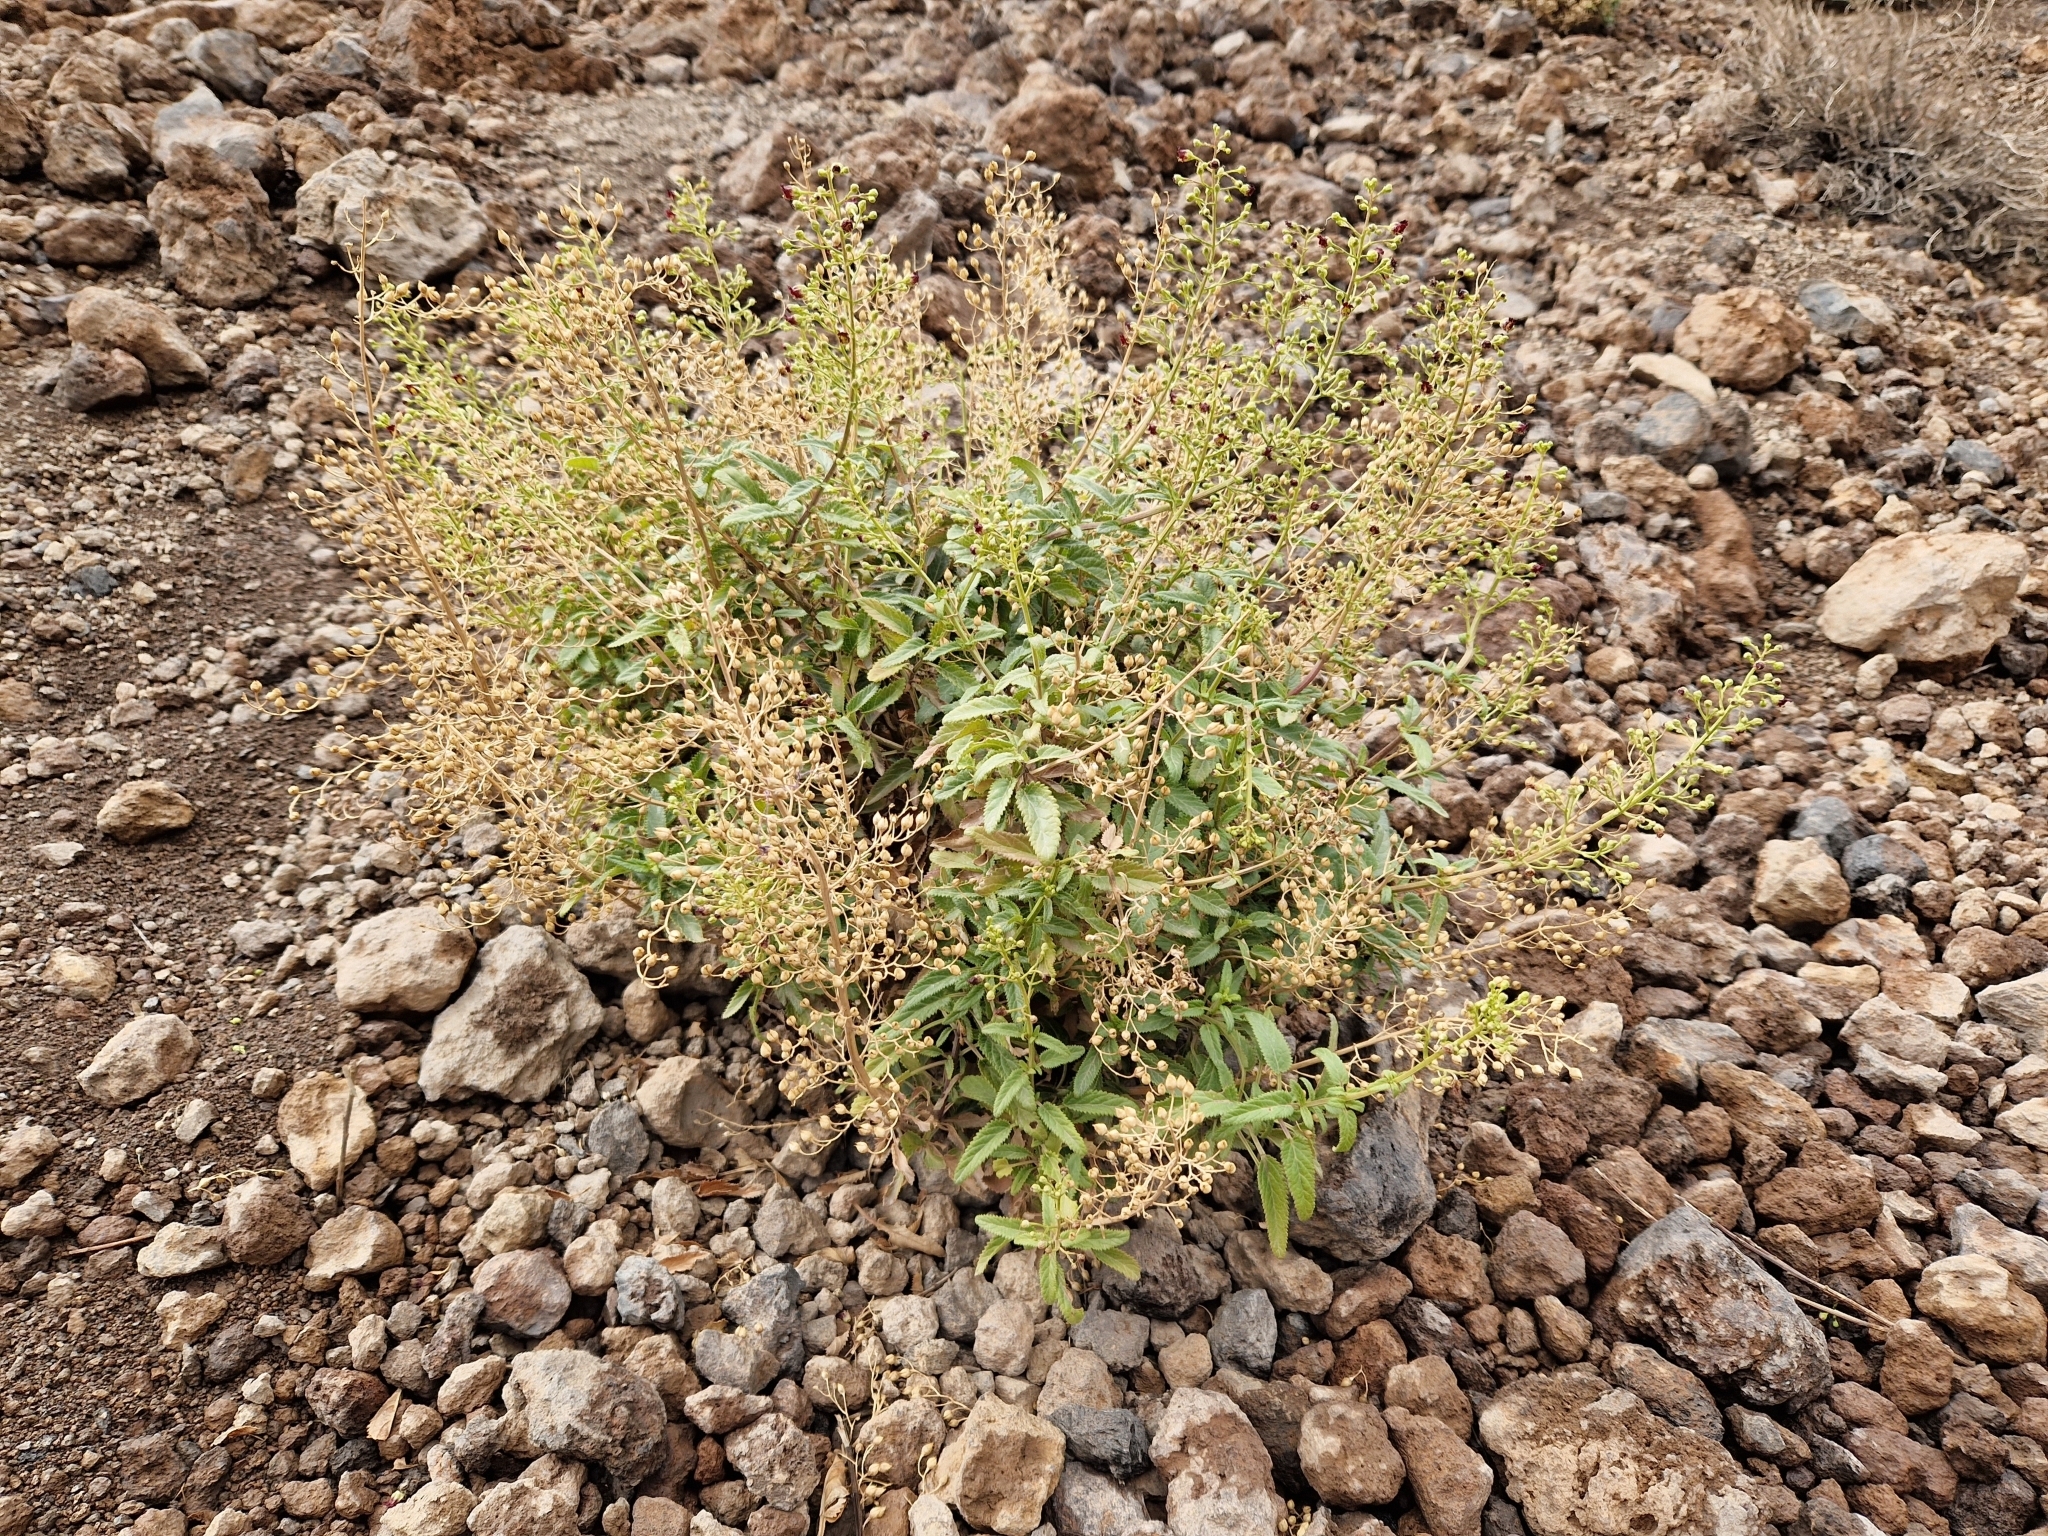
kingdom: Plantae
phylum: Tracheophyta
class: Magnoliopsida
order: Lamiales
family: Scrophulariaceae
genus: Scrophularia
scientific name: Scrophularia glabrata
